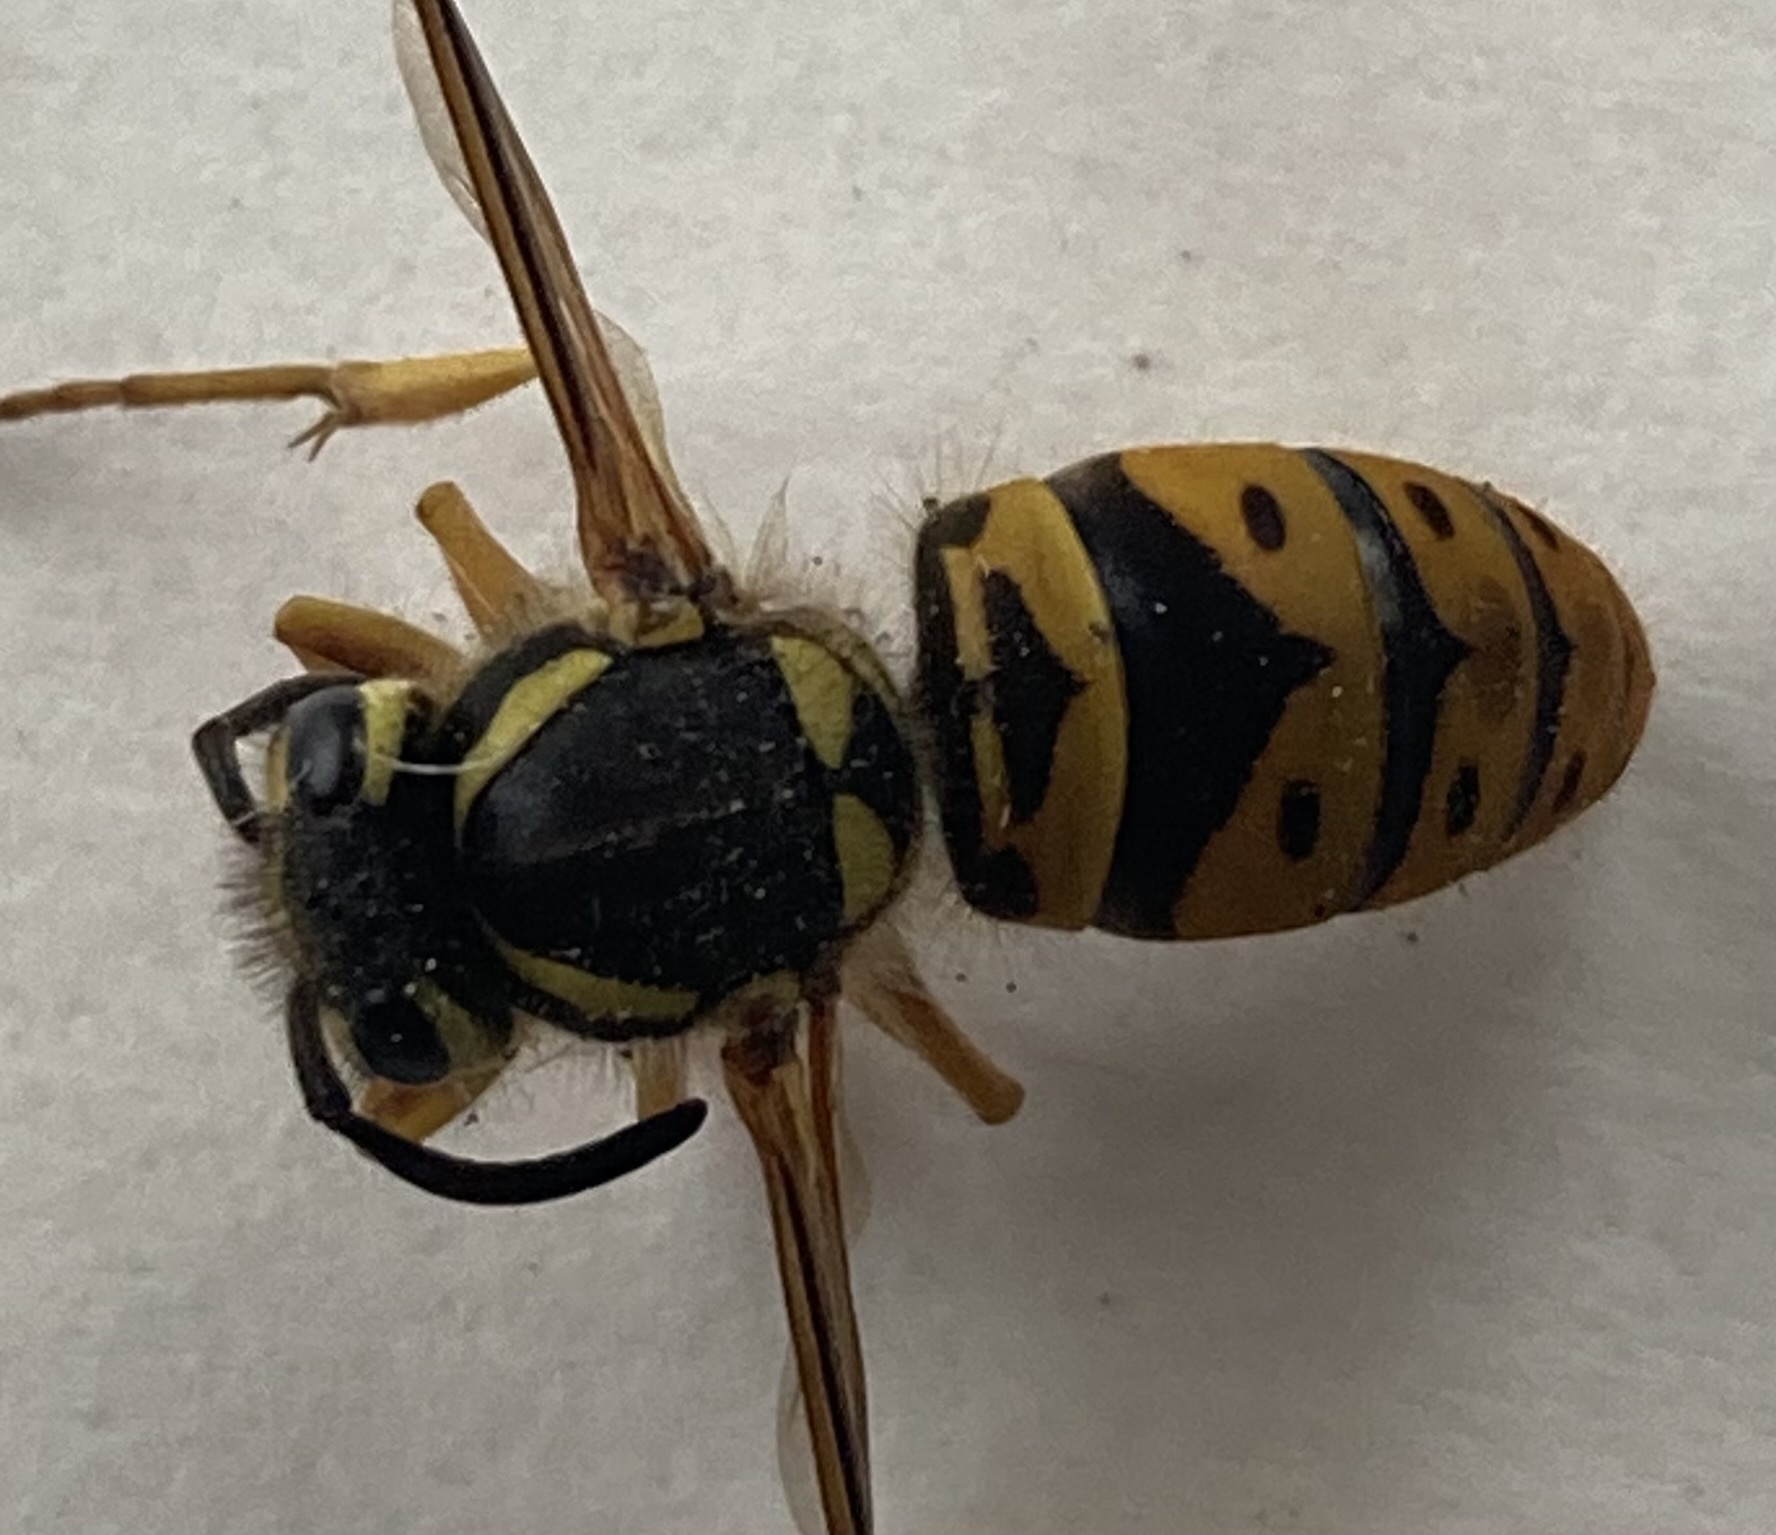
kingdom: Animalia
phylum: Arthropoda
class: Insecta
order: Hymenoptera
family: Vespidae
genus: Vespula
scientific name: Vespula maculifrons
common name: Eastern yellowjacket
